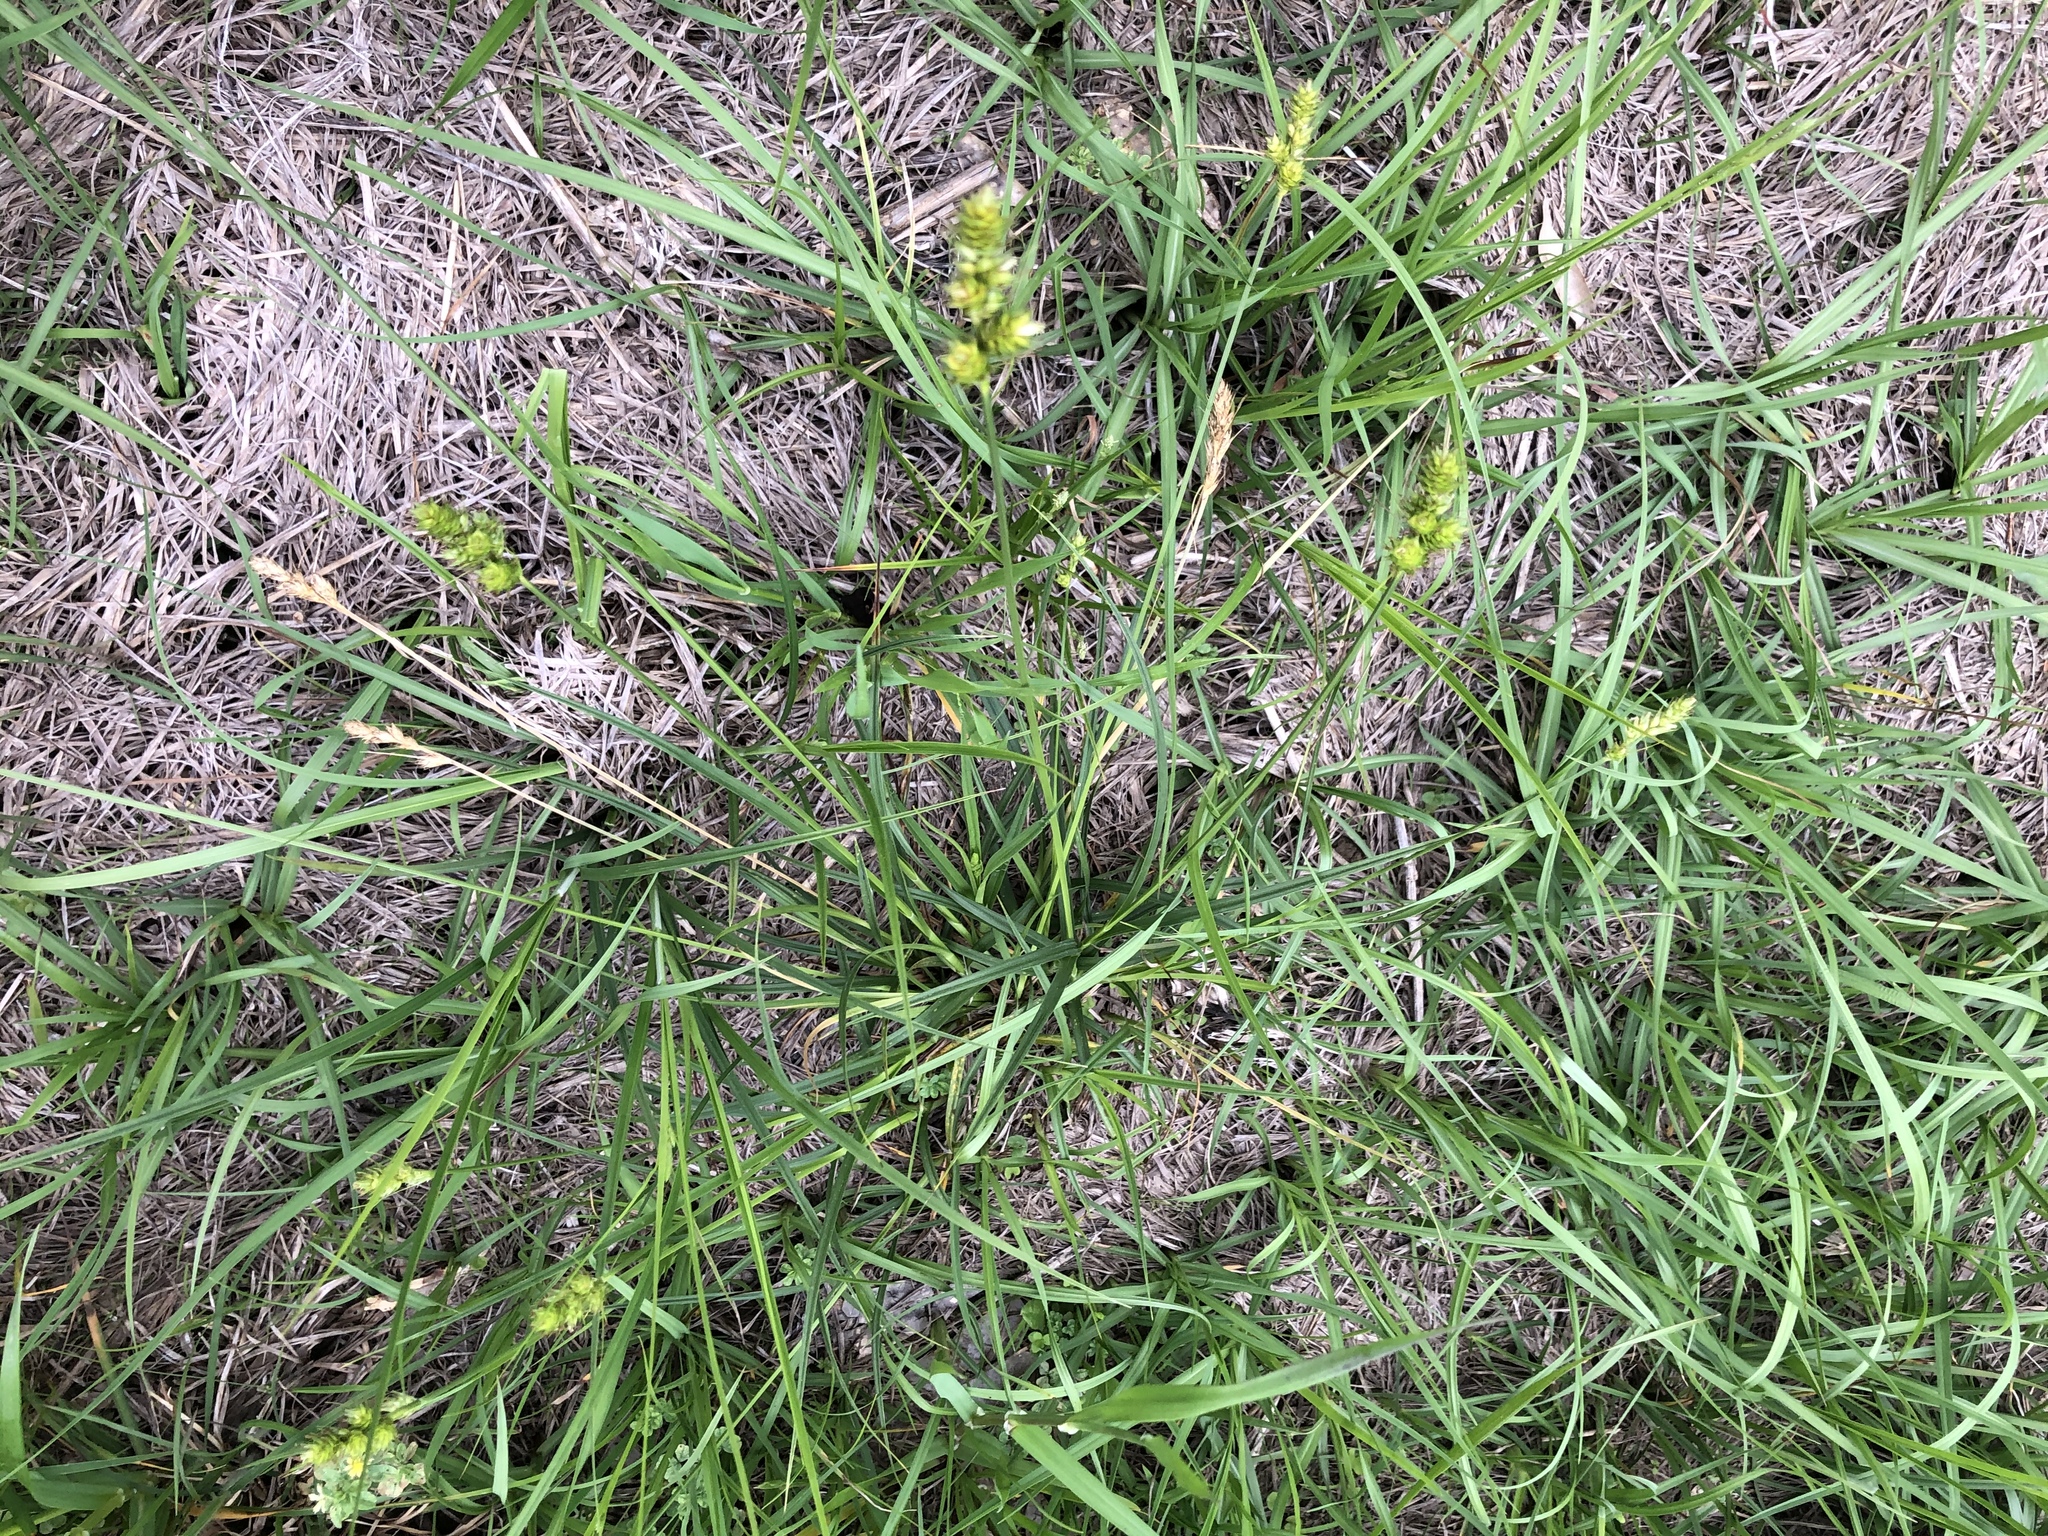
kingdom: Plantae
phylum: Tracheophyta
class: Liliopsida
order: Poales
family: Cyperaceae
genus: Carex
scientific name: Carex austrina
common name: Southern sedge
